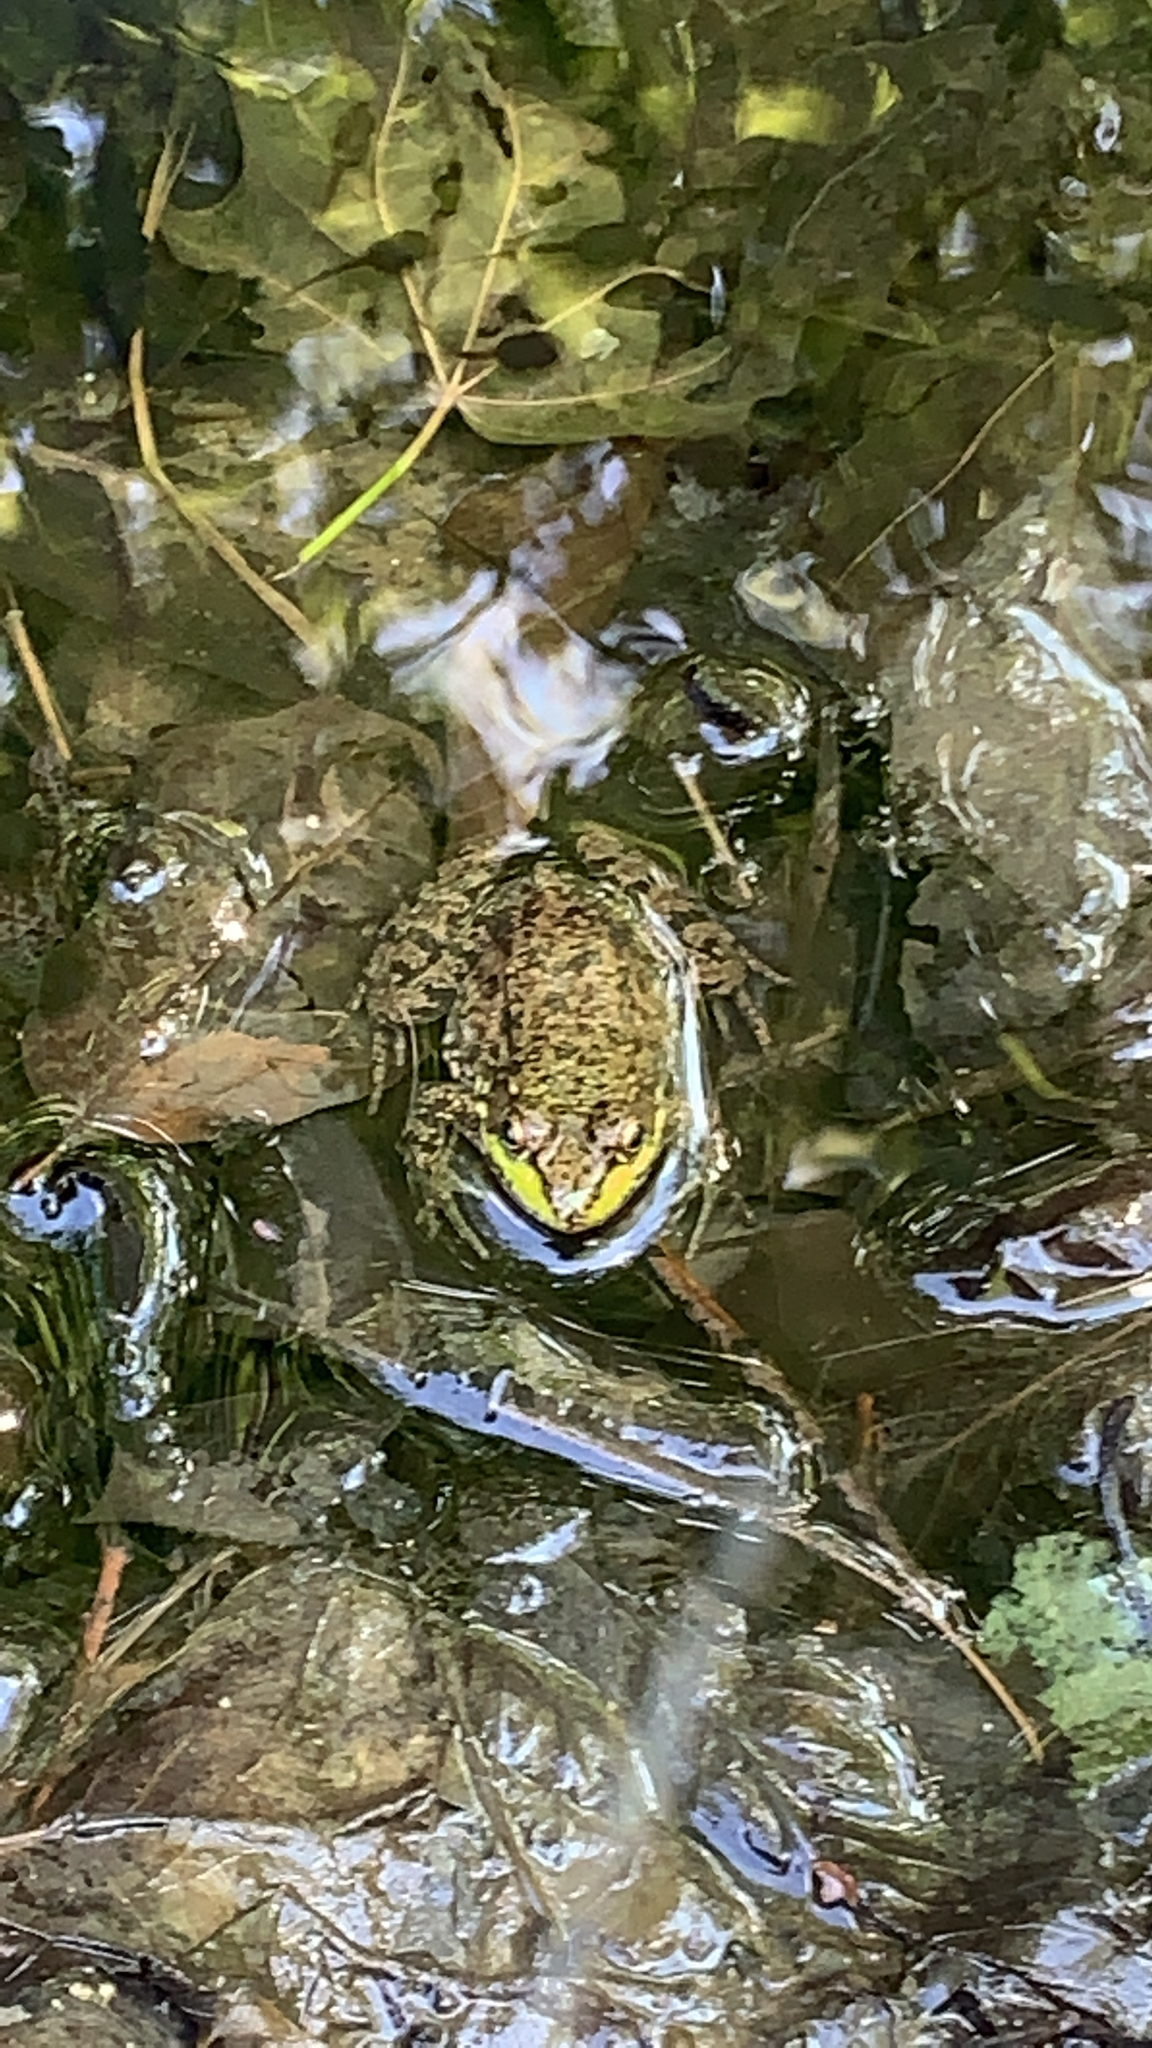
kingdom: Animalia
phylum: Chordata
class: Amphibia
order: Anura
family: Ranidae
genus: Lithobates
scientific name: Lithobates clamitans
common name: Green frog
